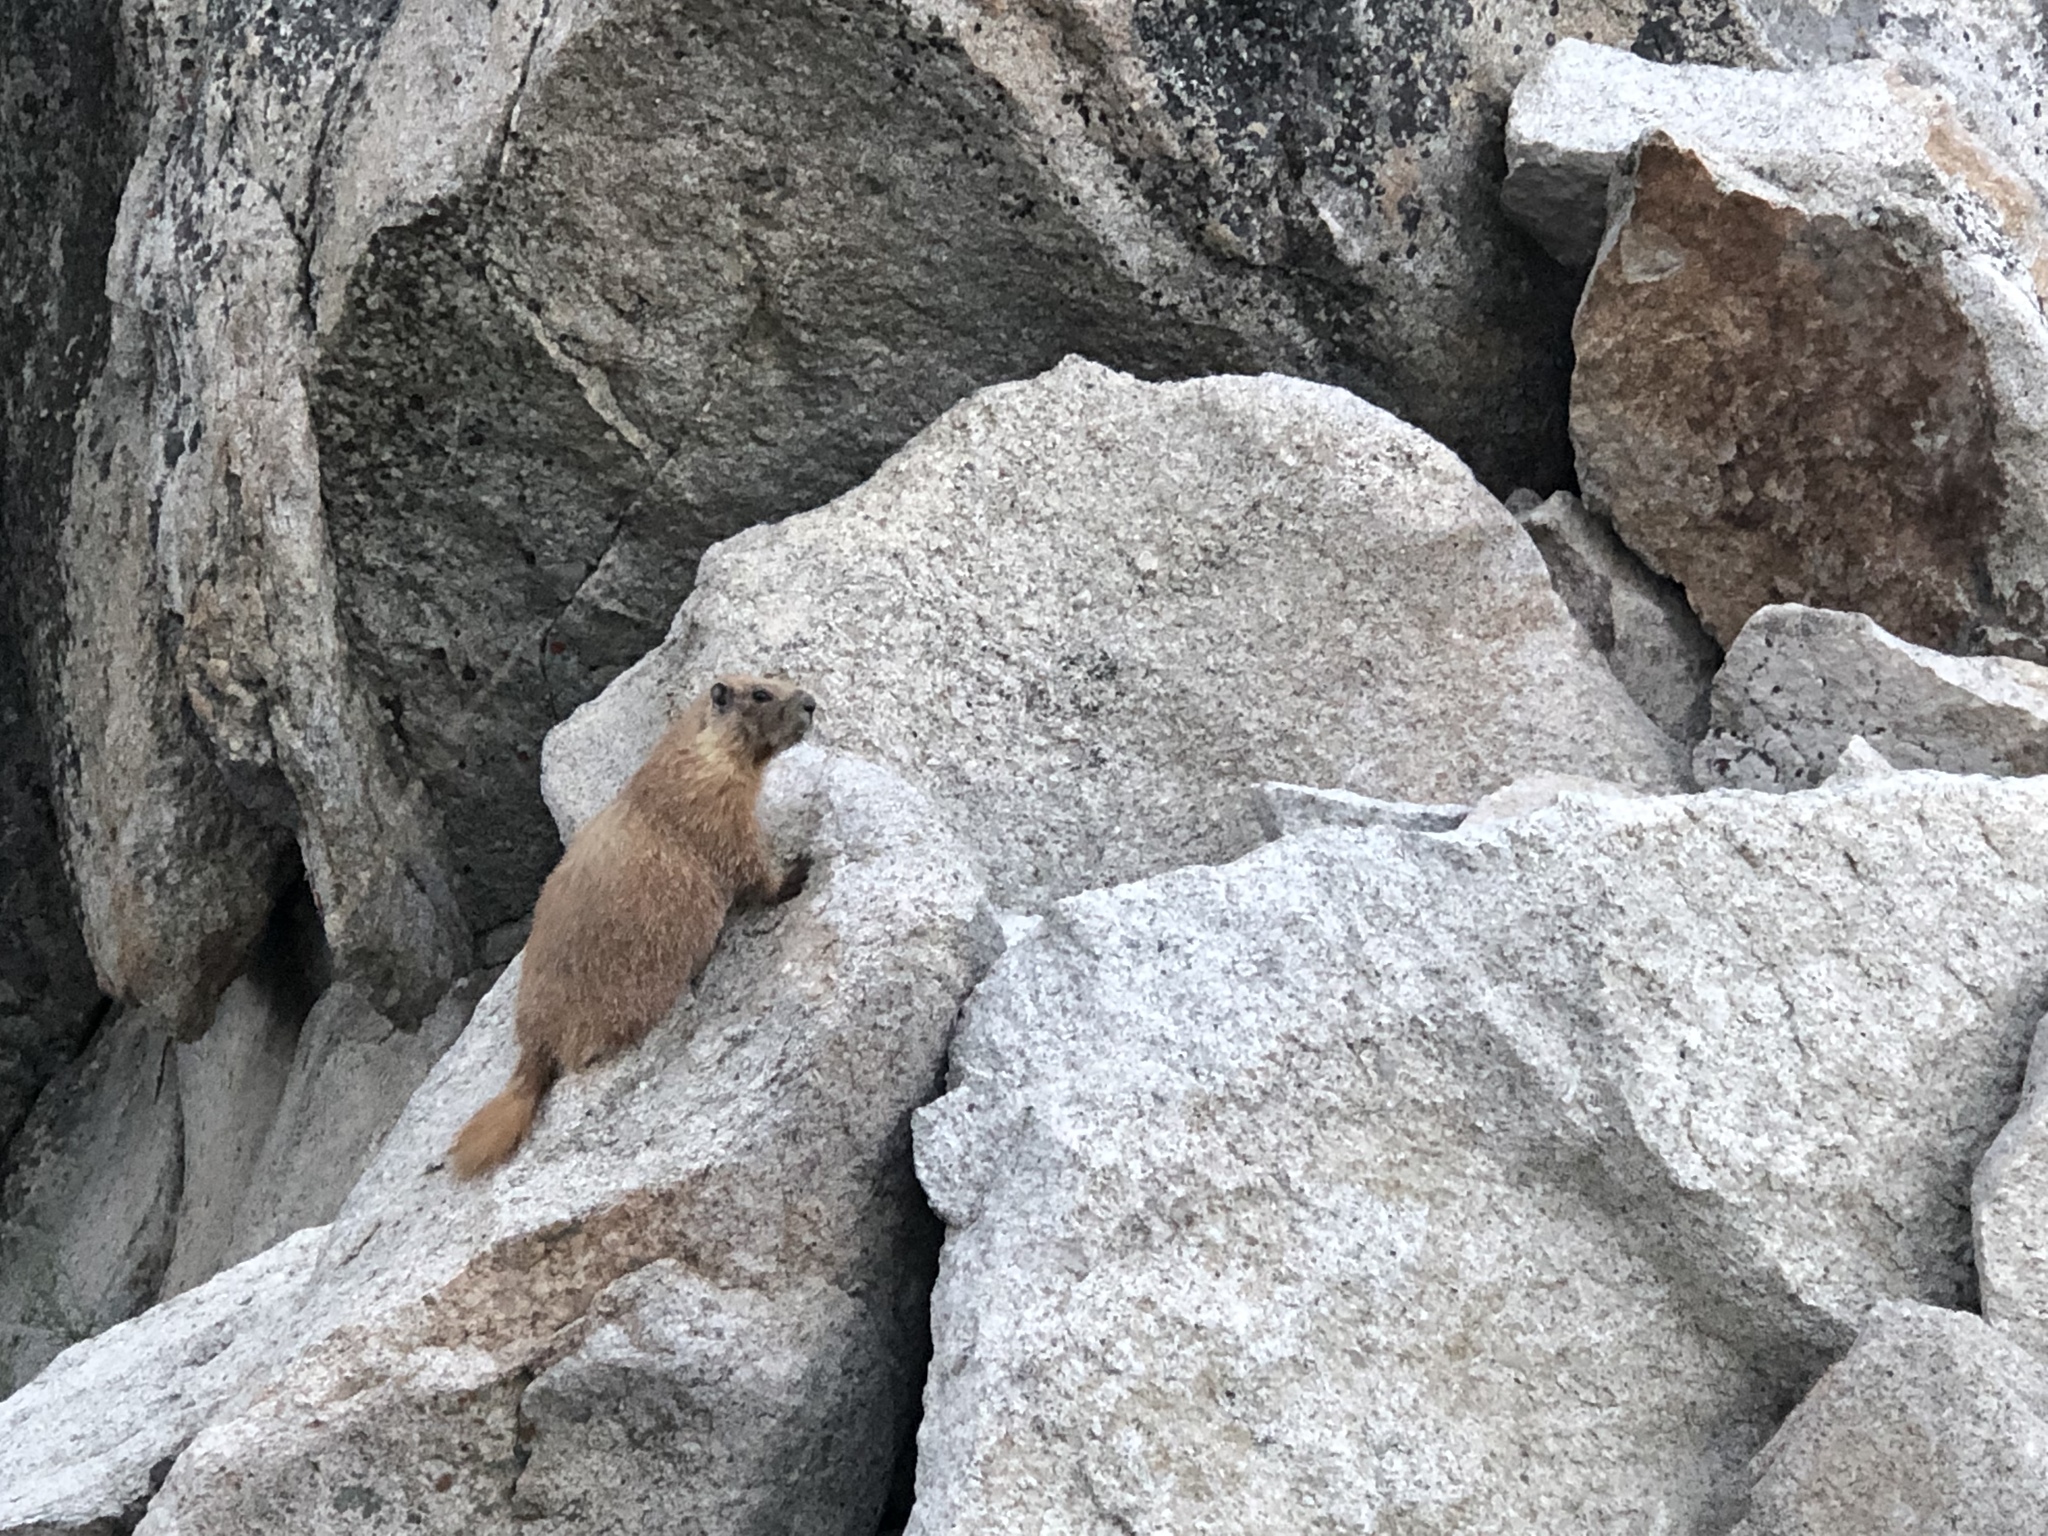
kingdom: Animalia
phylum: Chordata
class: Mammalia
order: Rodentia
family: Sciuridae
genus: Marmota
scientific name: Marmota flaviventris
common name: Yellow-bellied marmot
